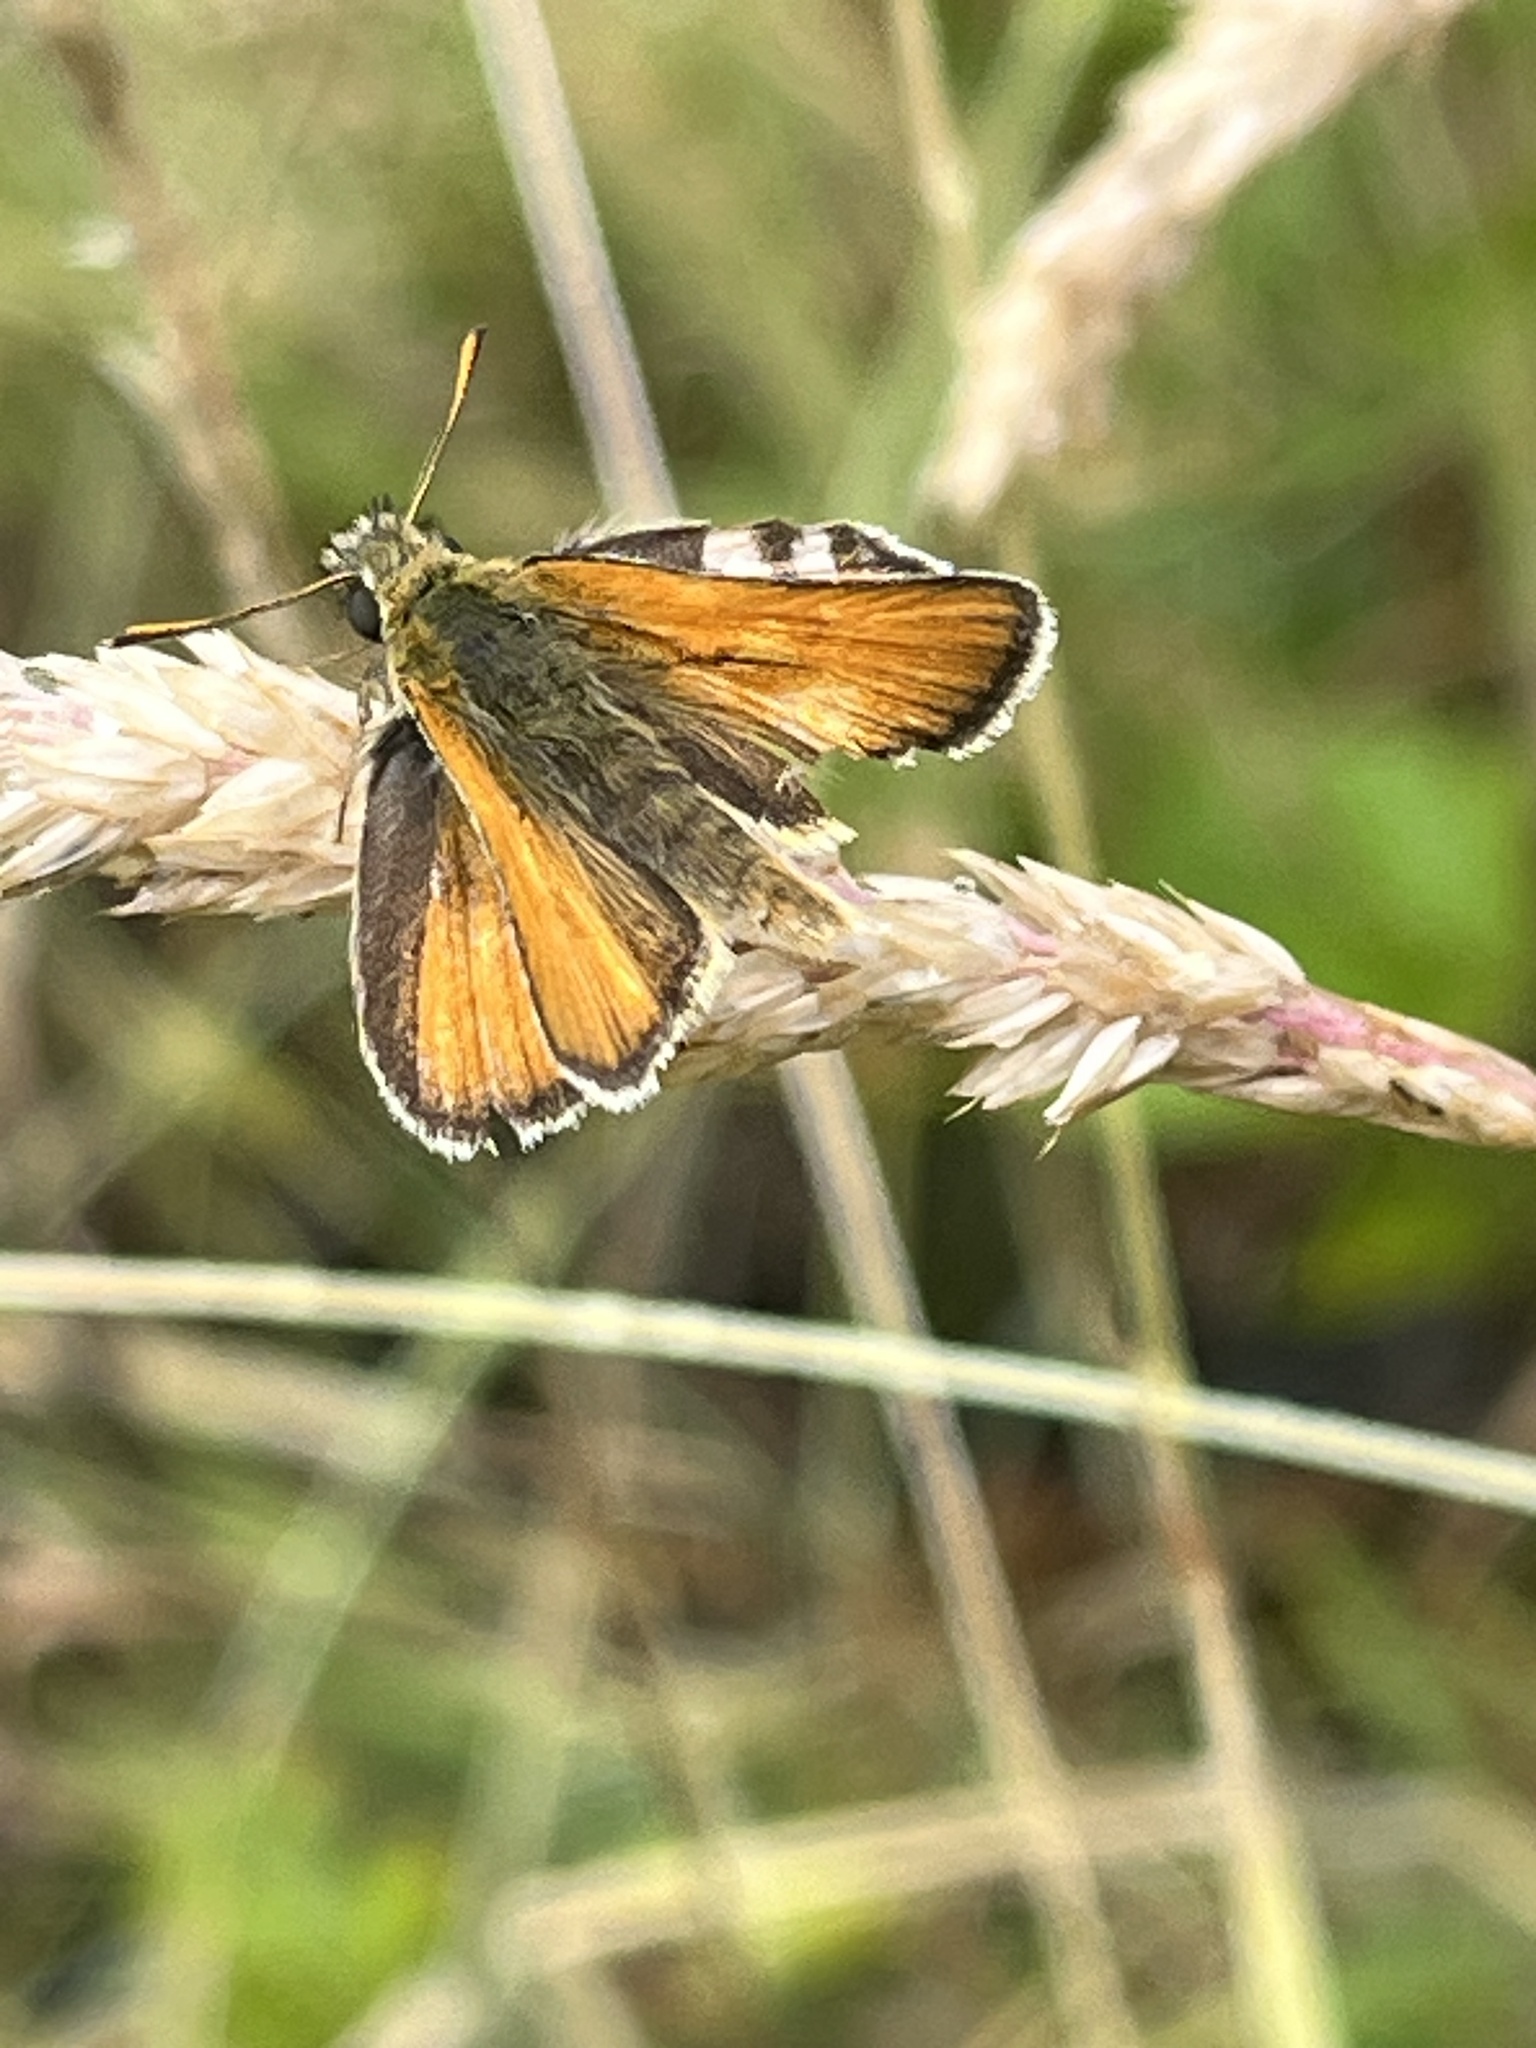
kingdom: Animalia
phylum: Arthropoda
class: Insecta
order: Lepidoptera
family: Hesperiidae
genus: Thymelicus
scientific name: Thymelicus sylvestris
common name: Small skipper
